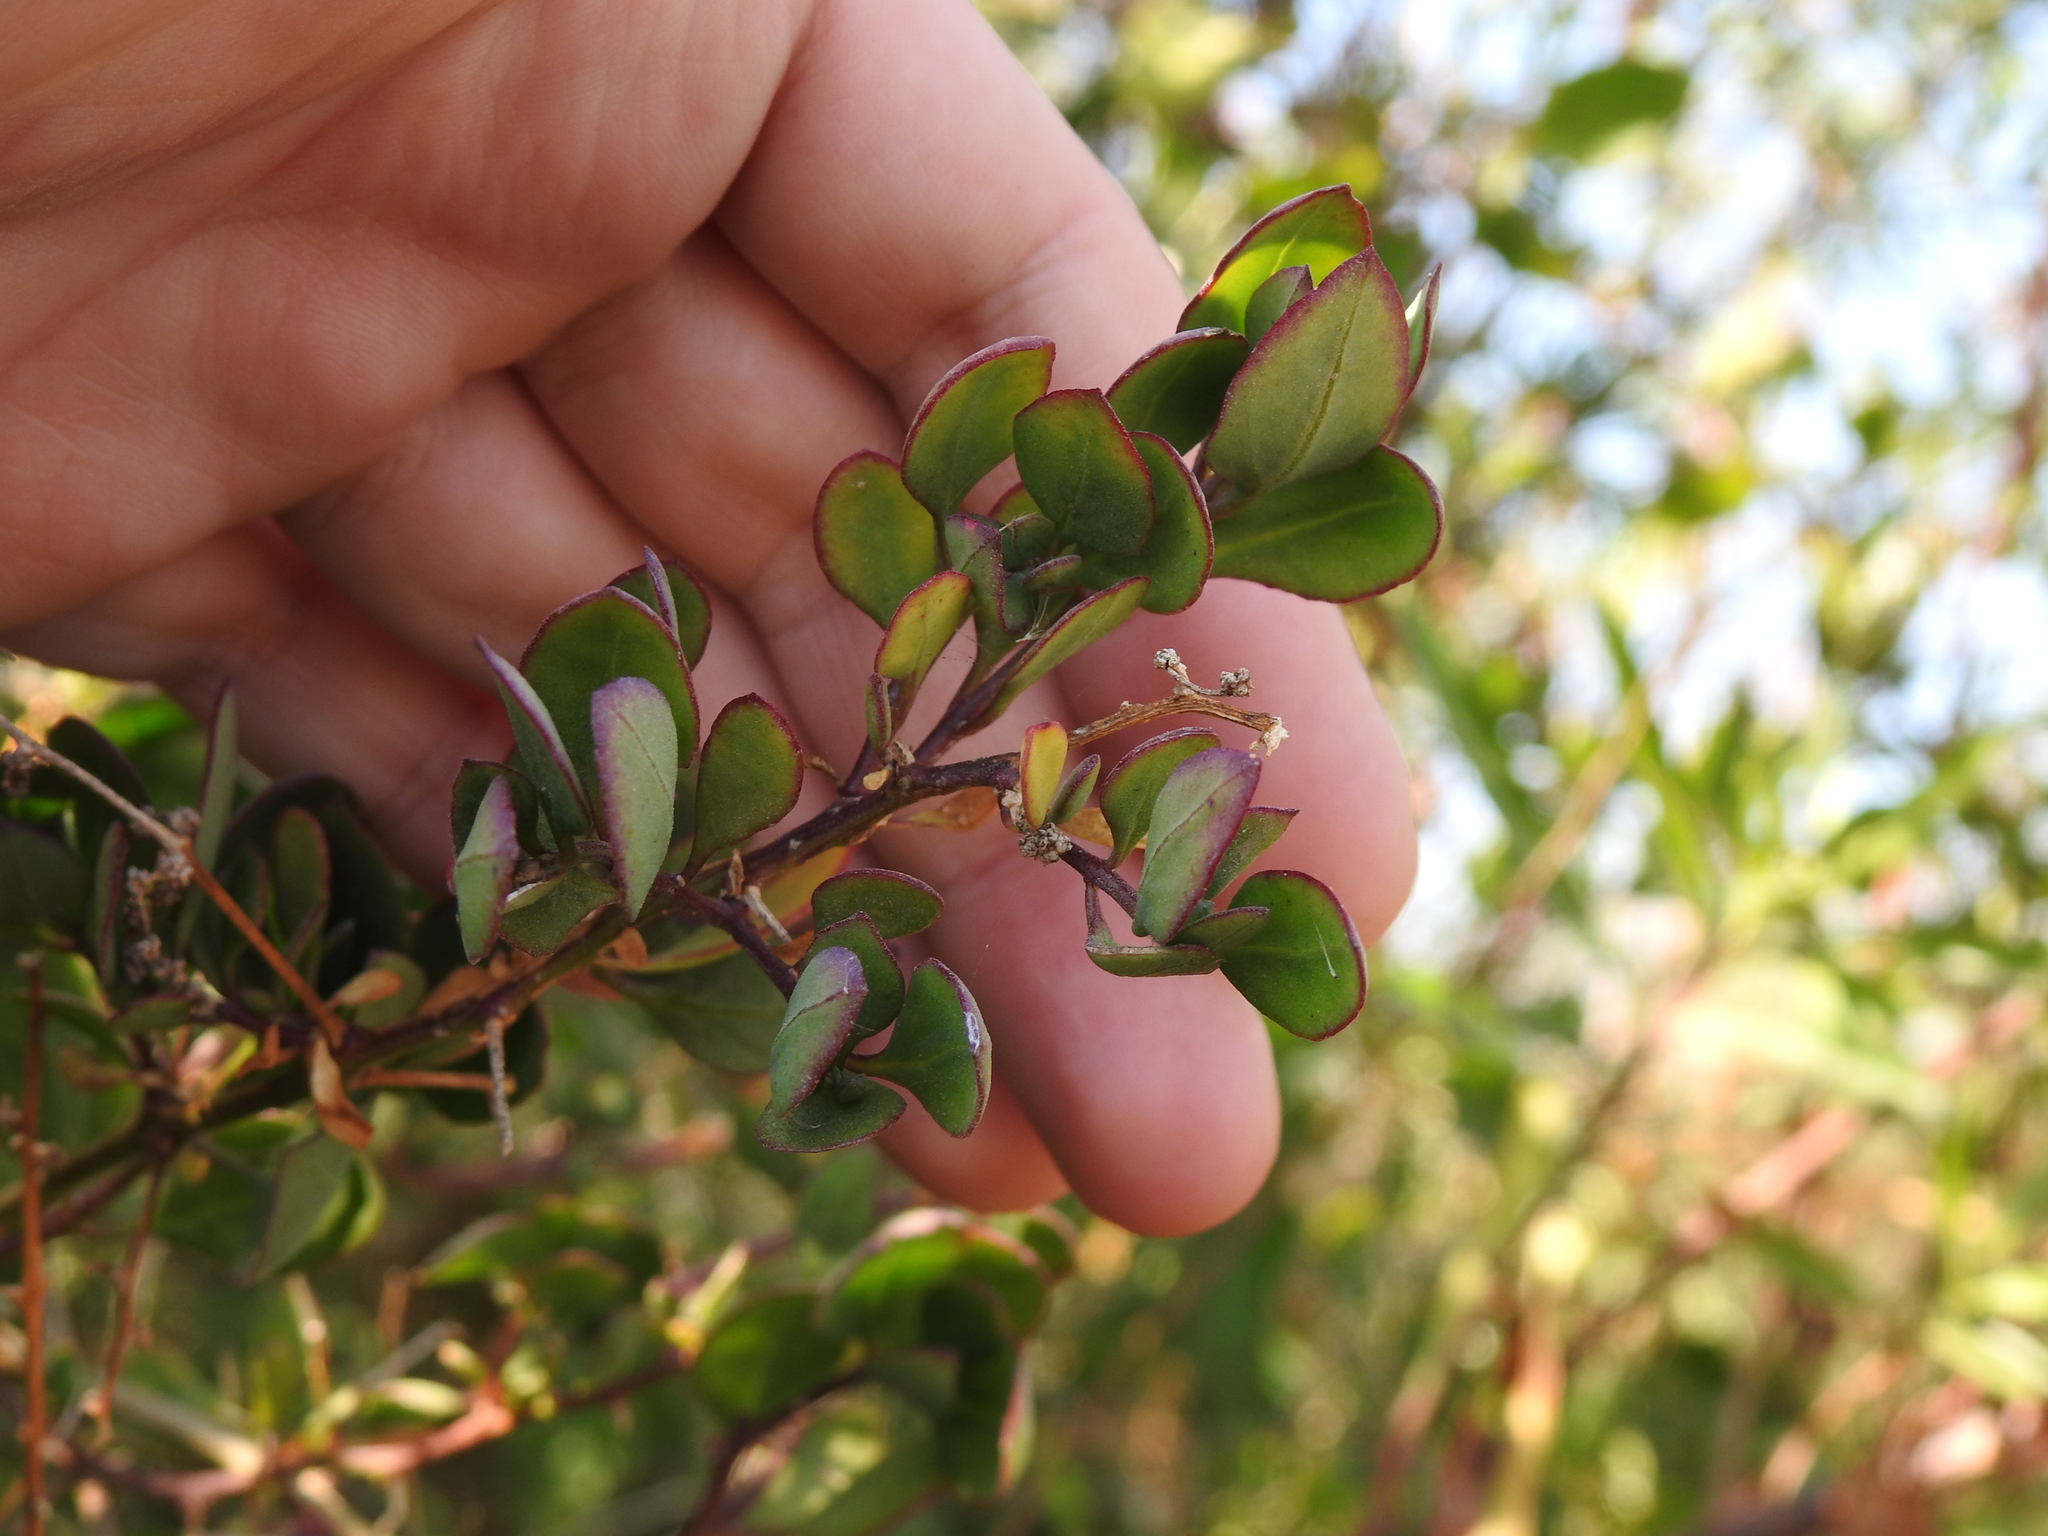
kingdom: Plantae
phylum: Tracheophyta
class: Magnoliopsida
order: Caryophyllales
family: Amaranthaceae
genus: Holmbergia
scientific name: Holmbergia tweedii
